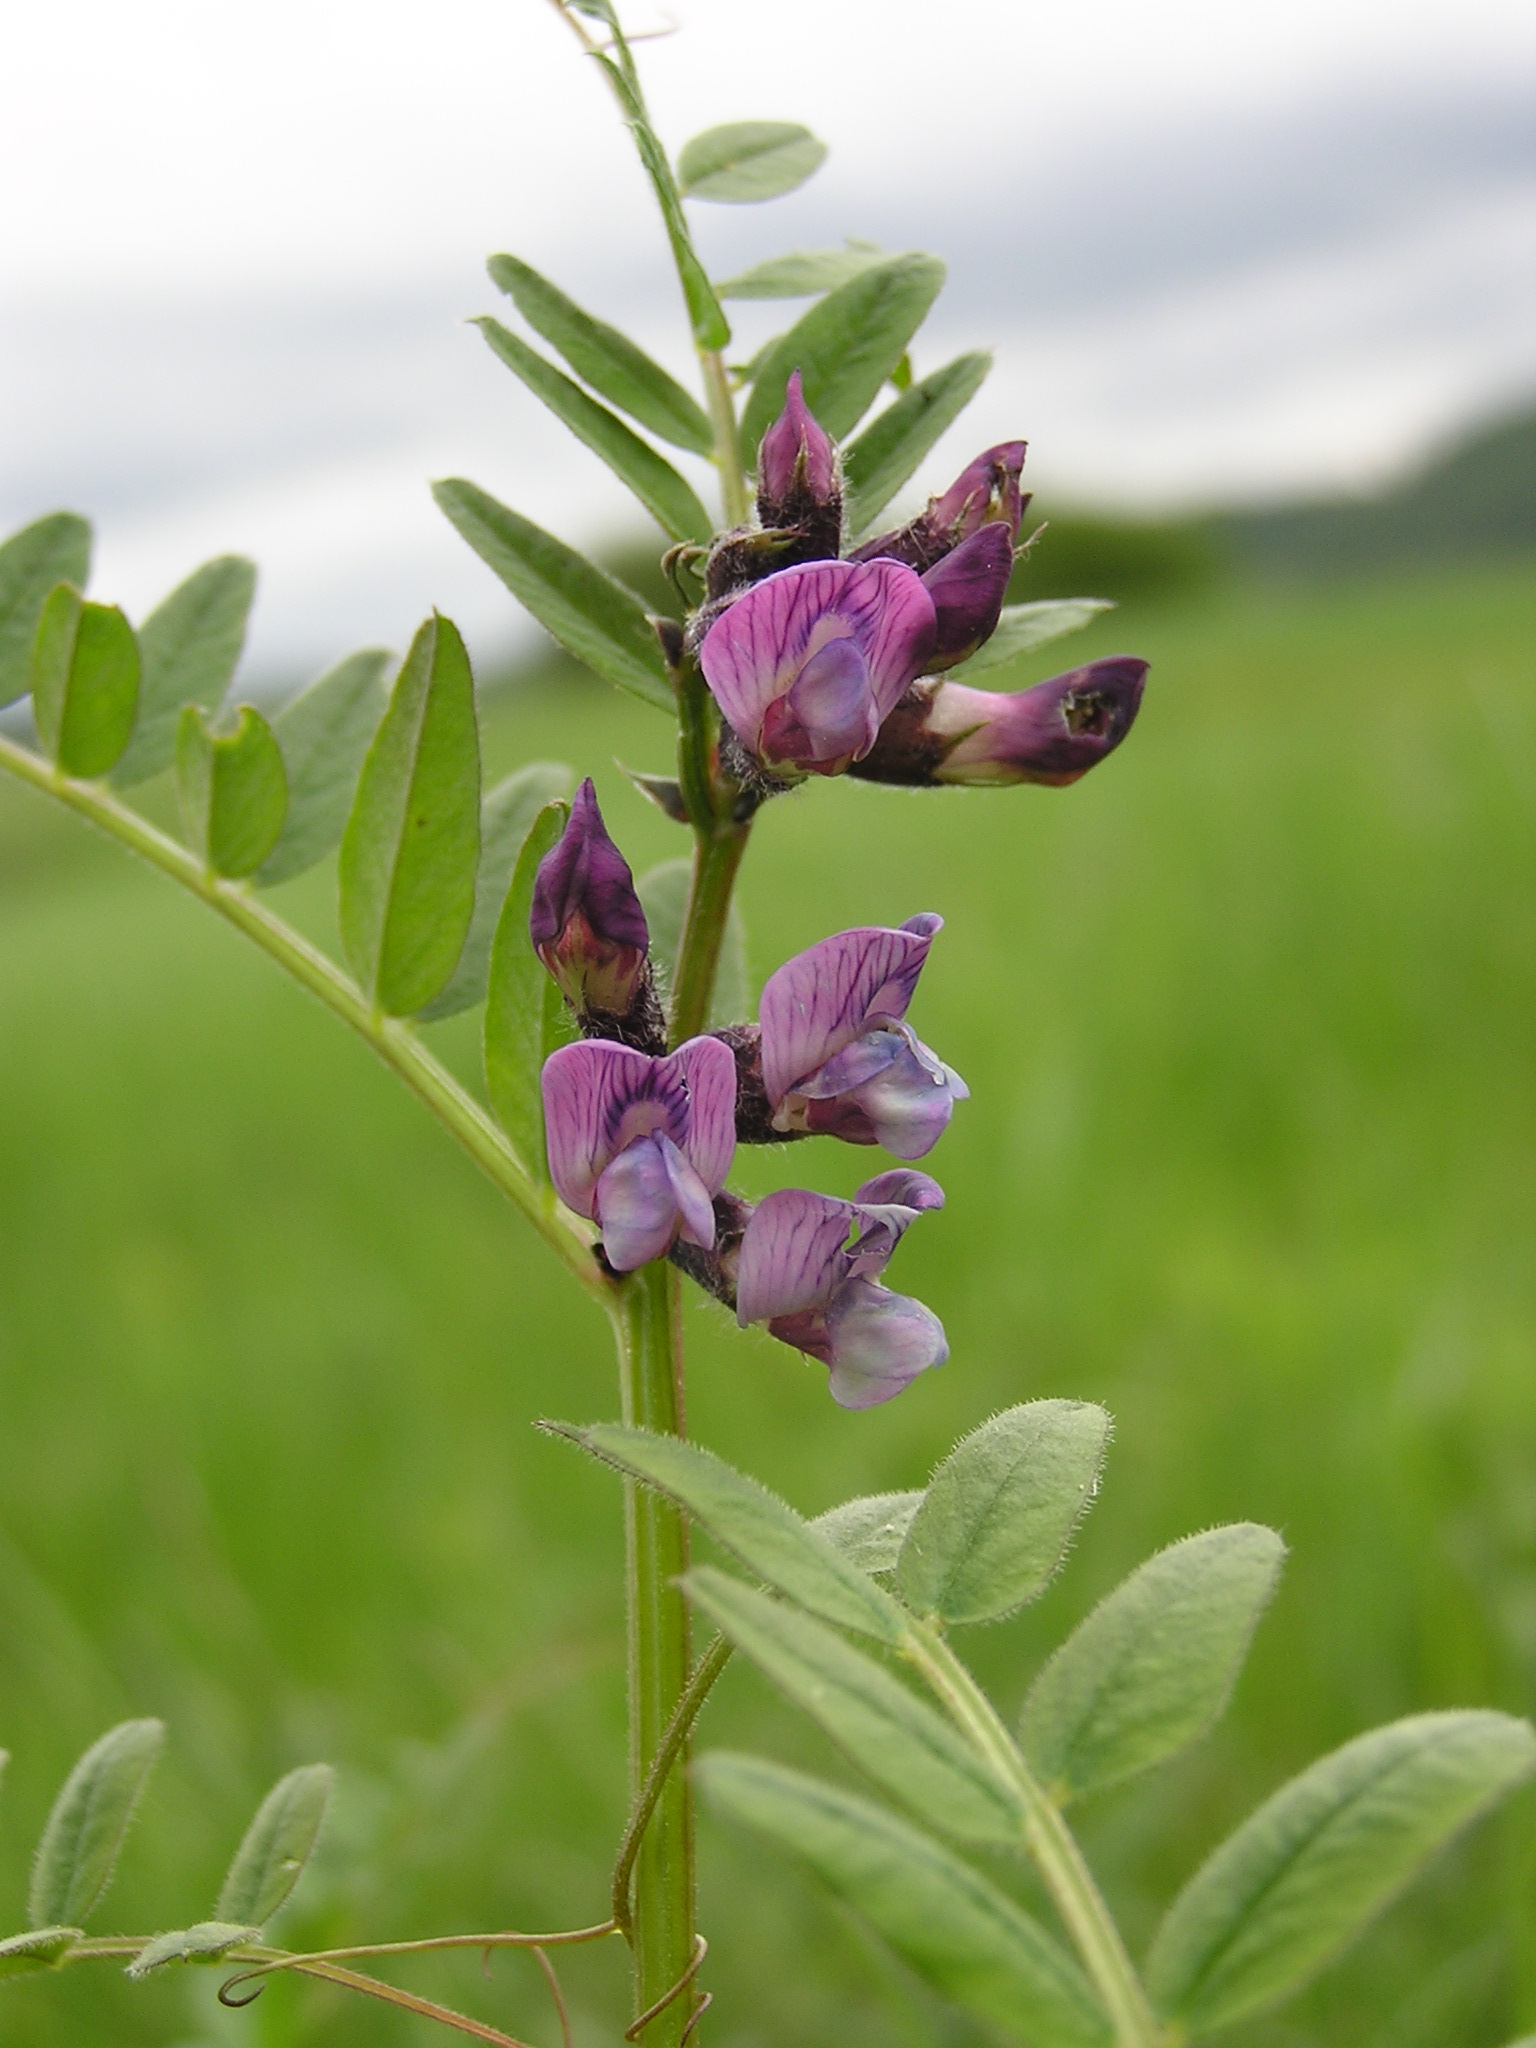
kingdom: Plantae
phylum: Tracheophyta
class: Magnoliopsida
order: Fabales
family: Fabaceae
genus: Vicia
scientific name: Vicia sepium
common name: Bush vetch
